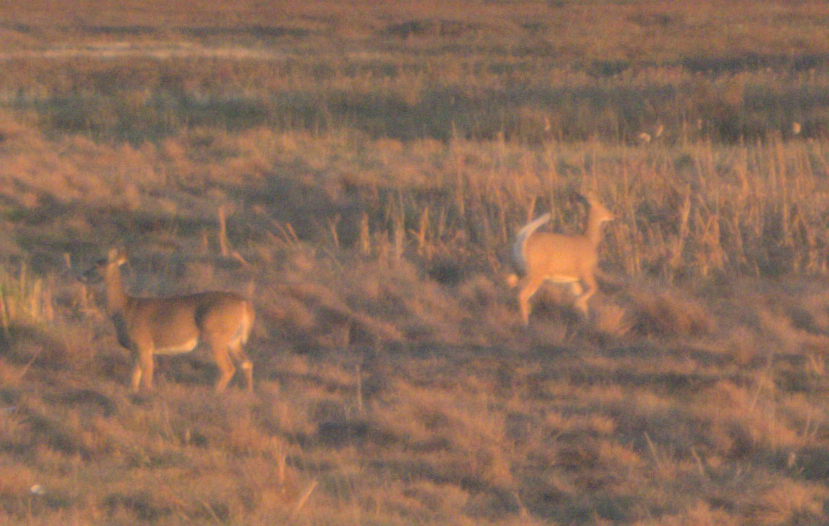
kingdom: Animalia
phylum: Chordata
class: Mammalia
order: Artiodactyla
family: Cervidae
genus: Odocoileus
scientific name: Odocoileus virginianus
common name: White-tailed deer
